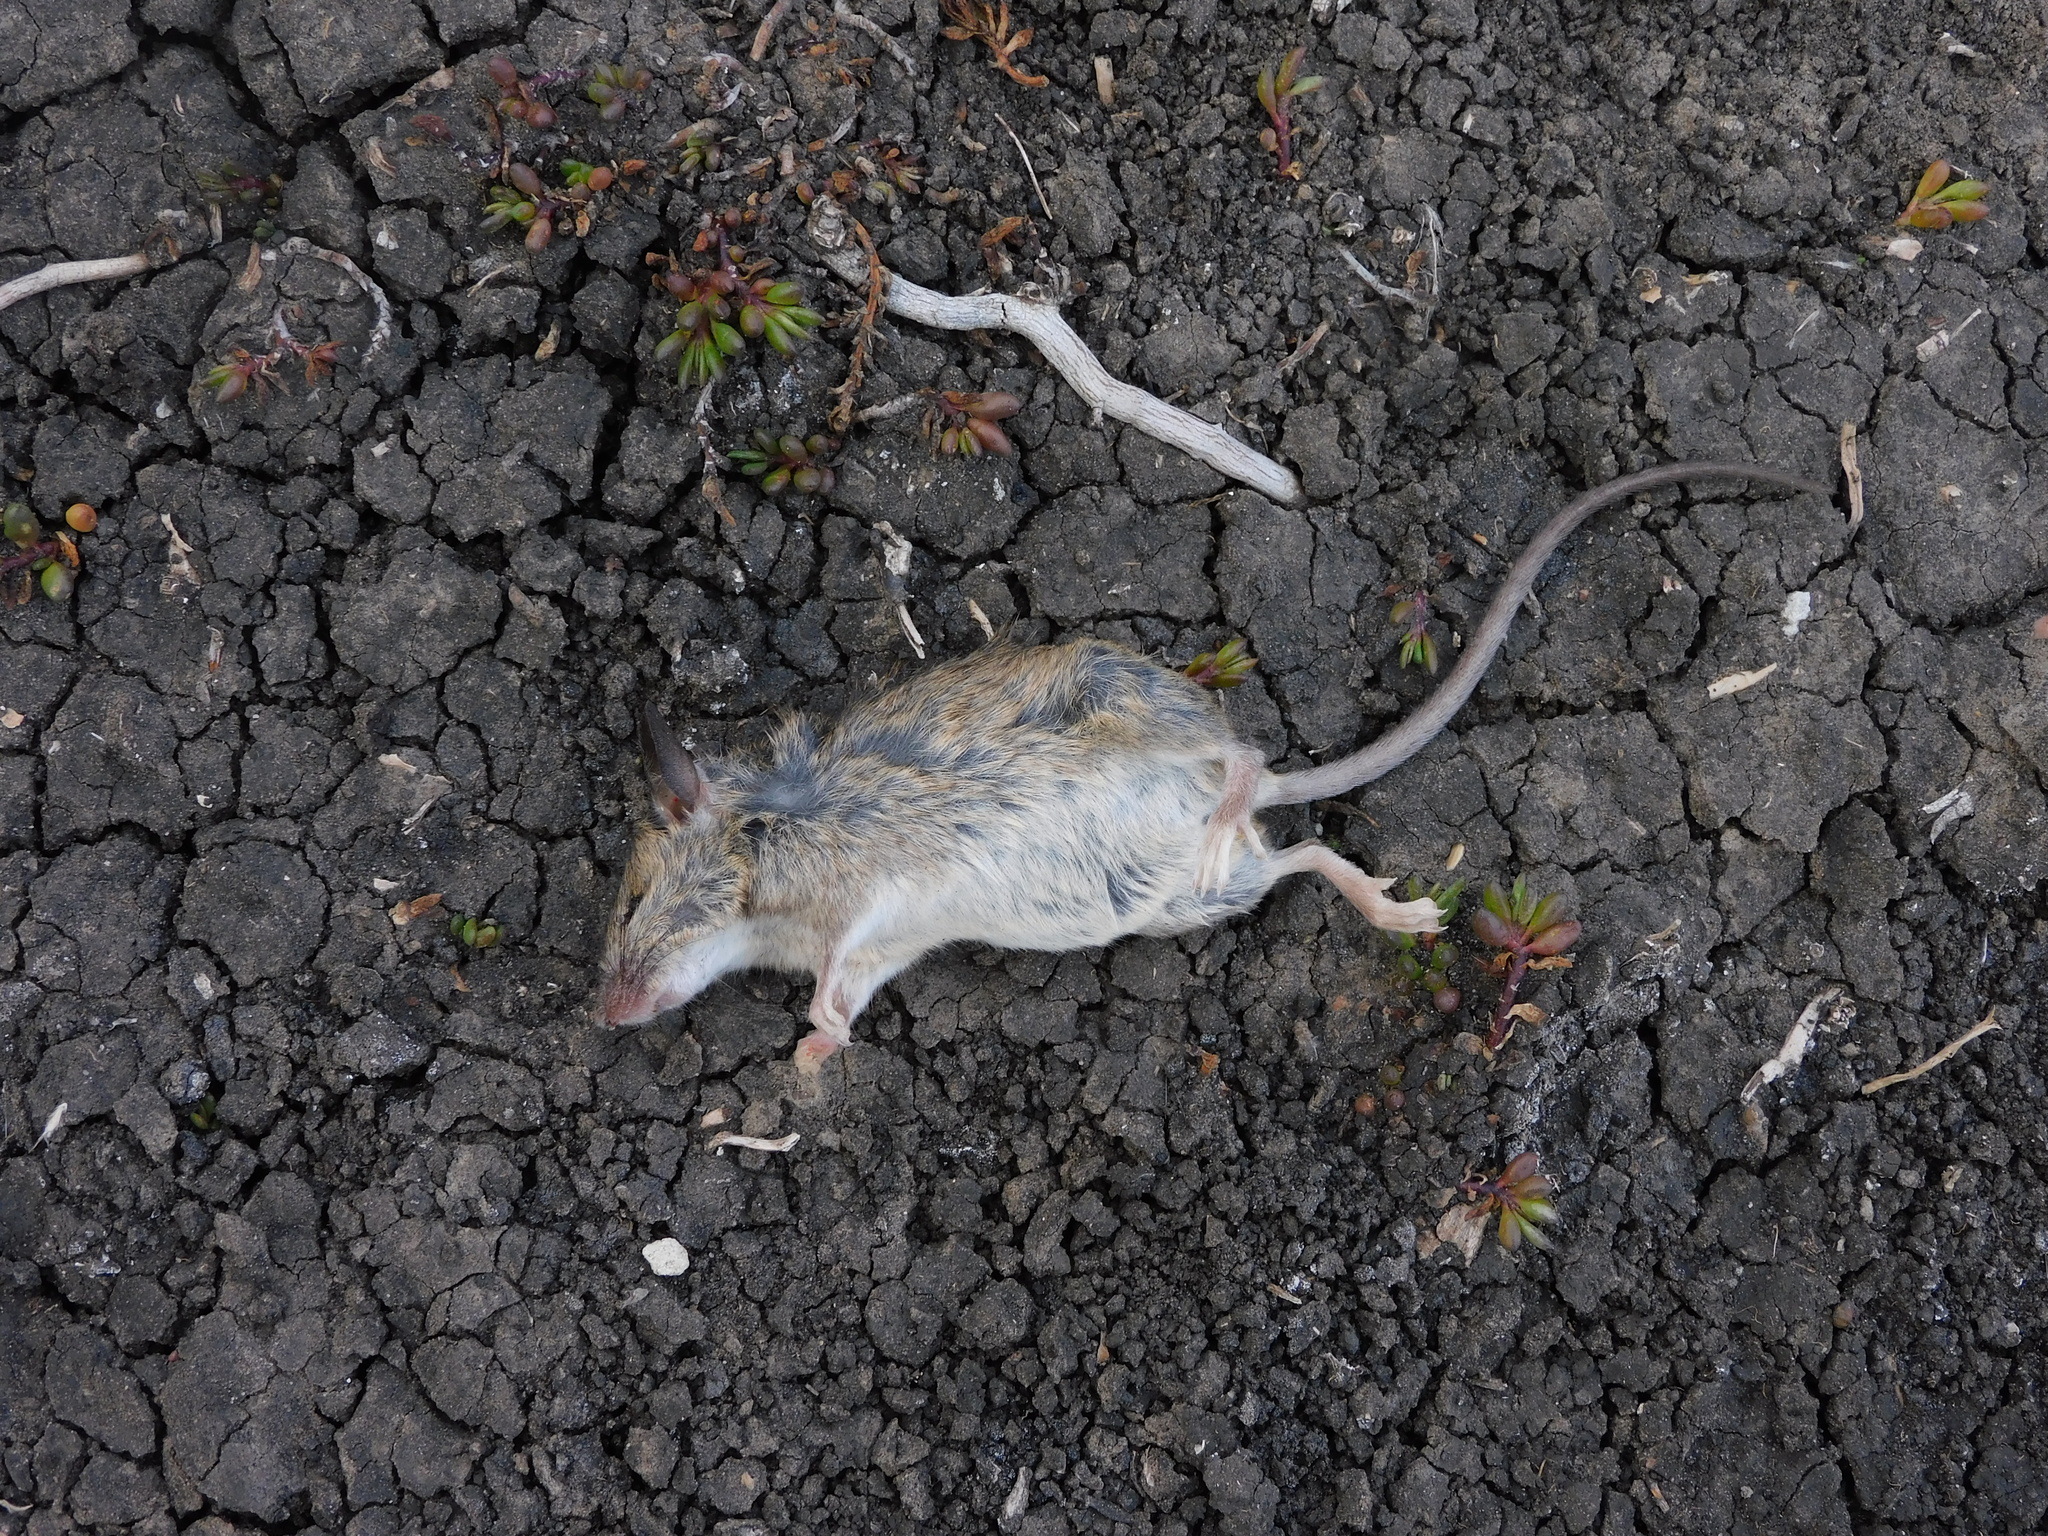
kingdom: Animalia
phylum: Chordata
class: Mammalia
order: Rodentia
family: Muridae
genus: Mus
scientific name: Mus musculus
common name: House mouse
